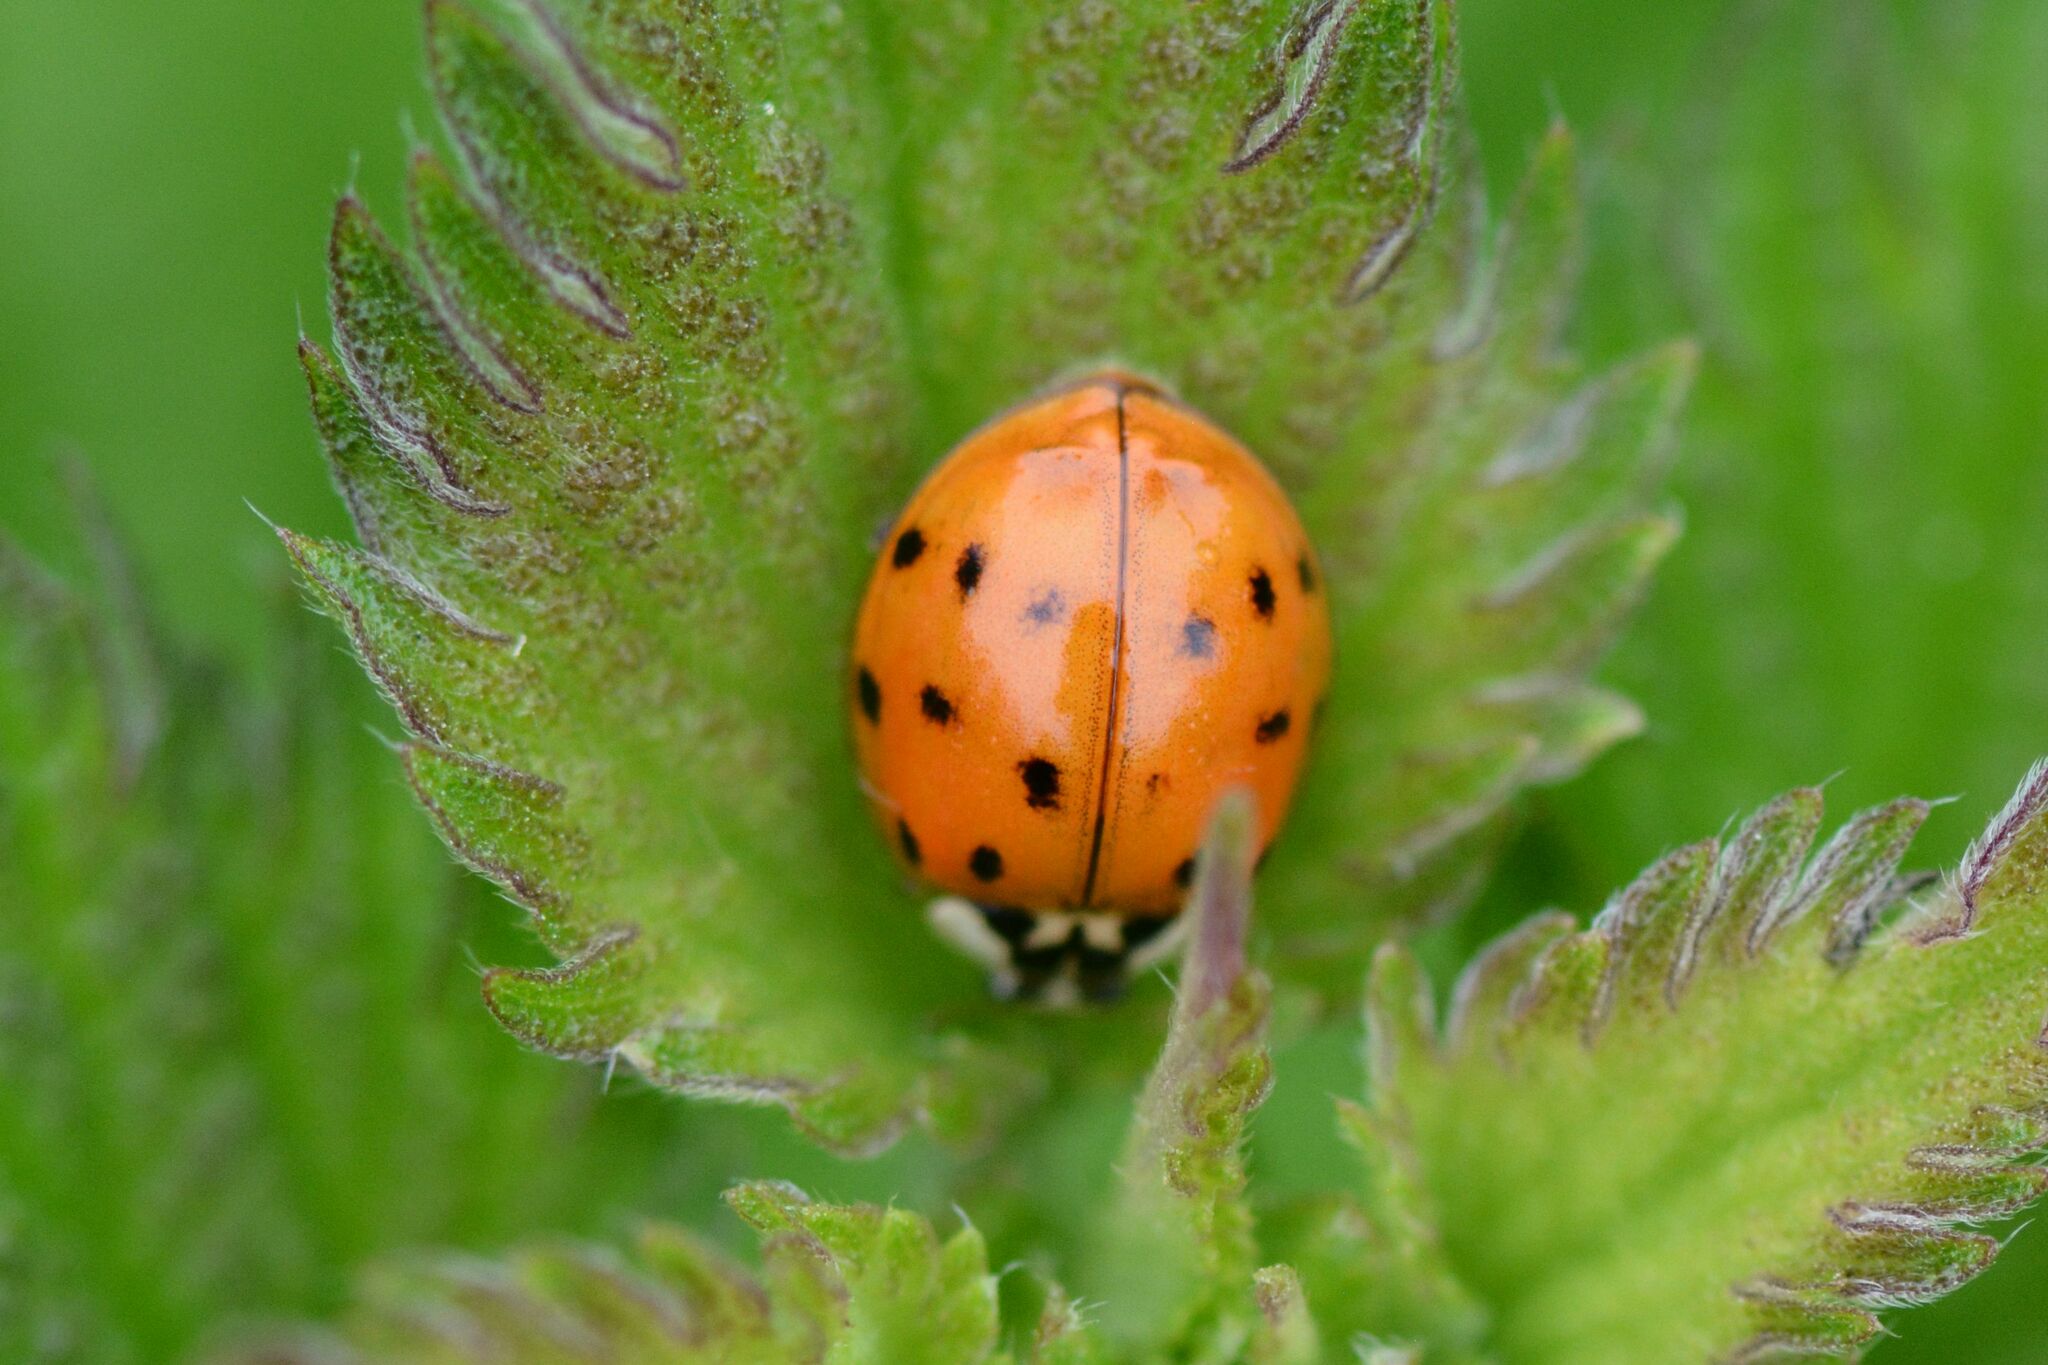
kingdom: Animalia
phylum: Arthropoda
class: Insecta
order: Coleoptera
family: Coccinellidae
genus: Harmonia
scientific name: Harmonia axyridis
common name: Harlequin ladybird
